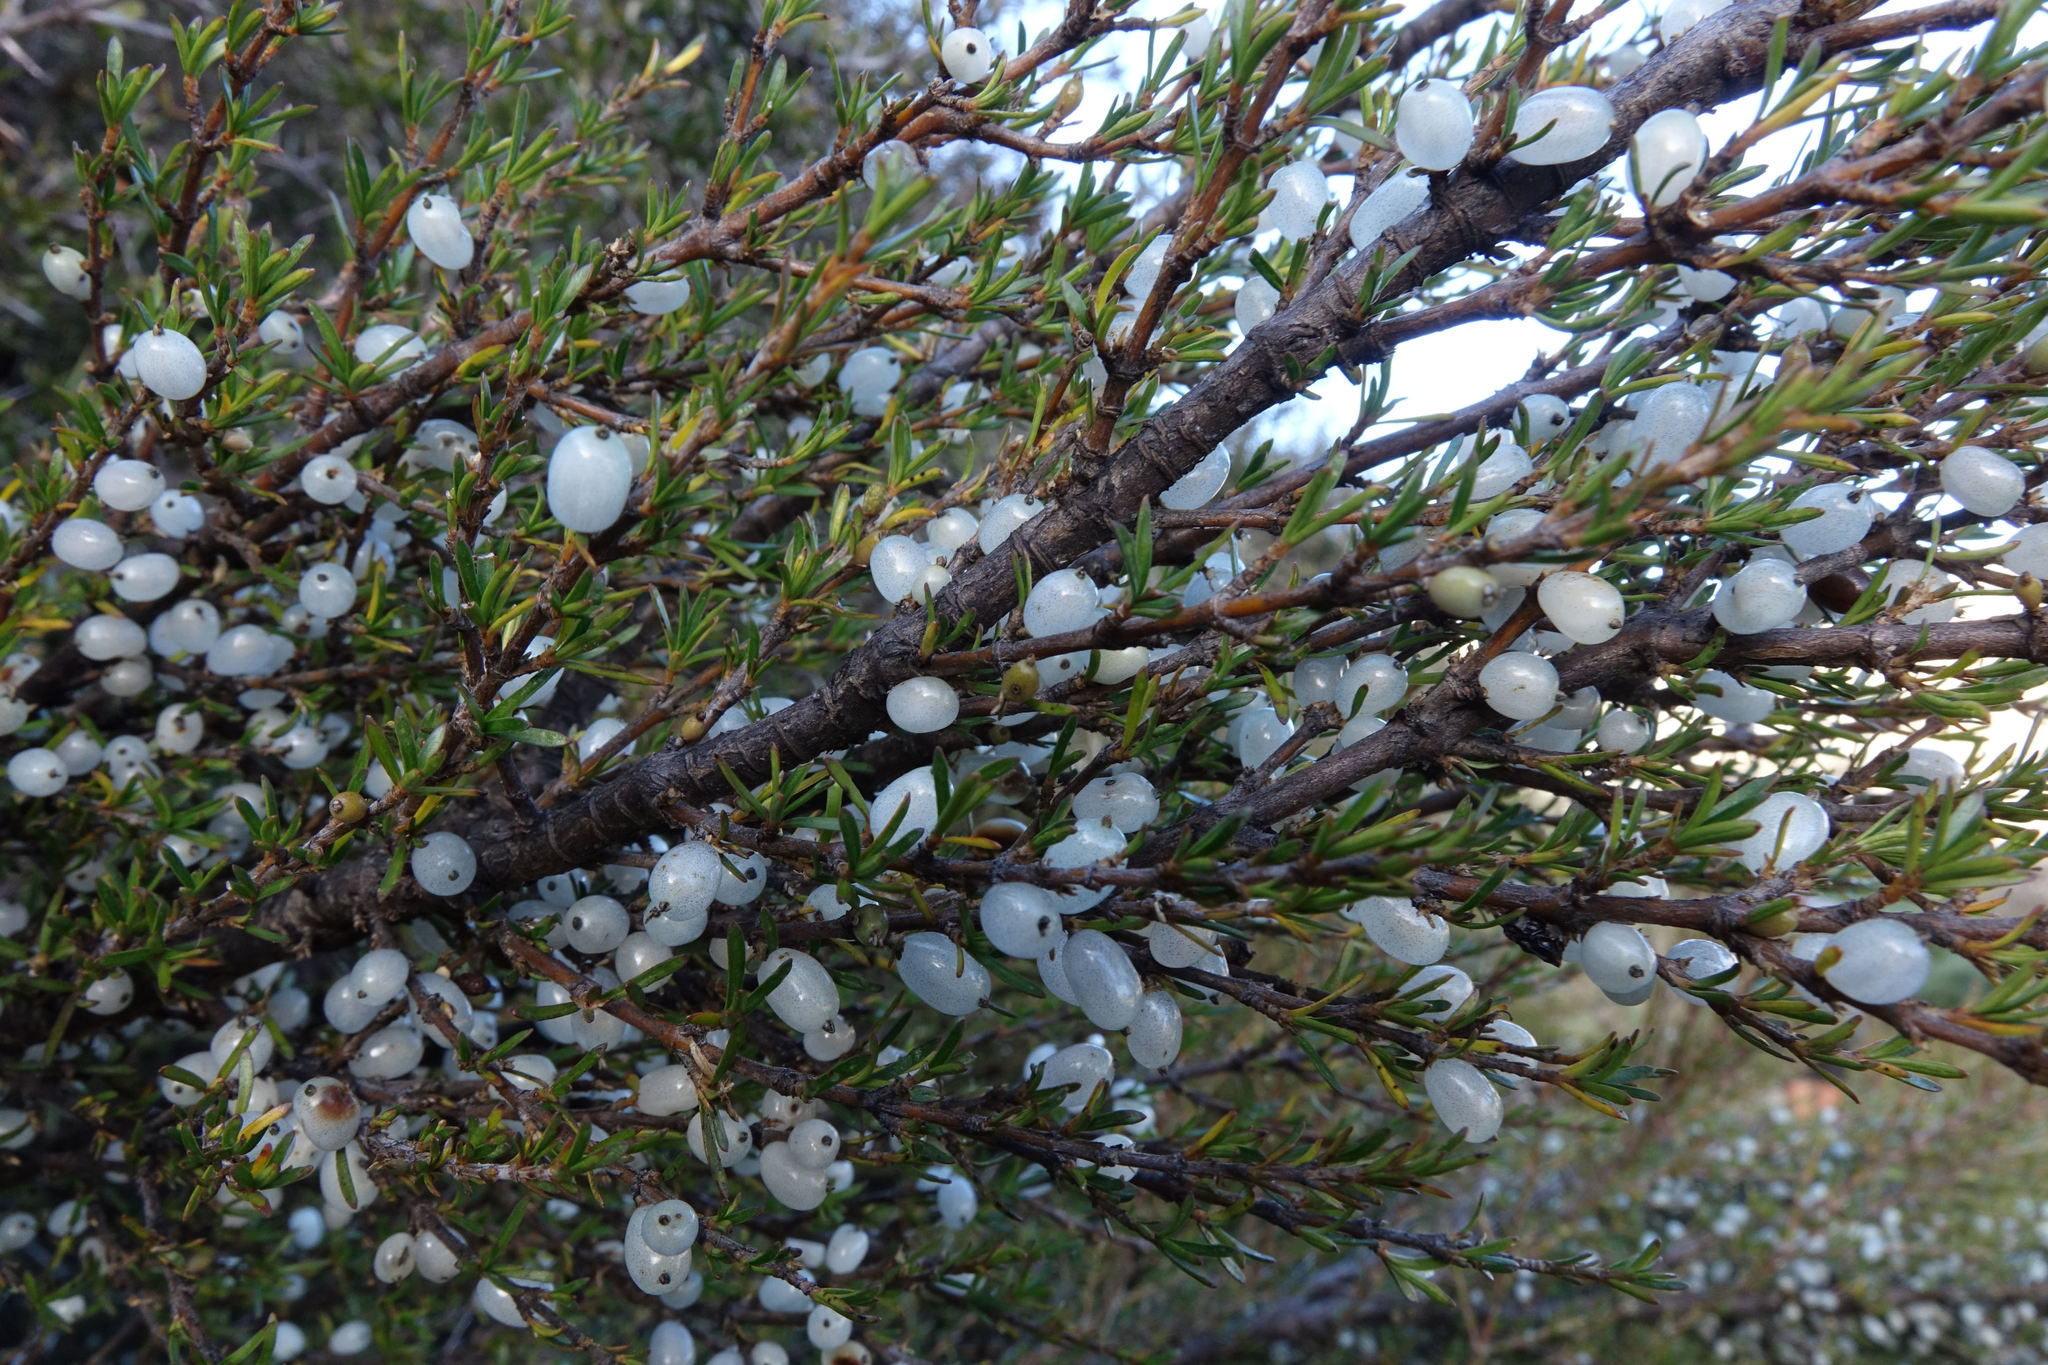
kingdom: Plantae
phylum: Tracheophyta
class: Magnoliopsida
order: Gentianales
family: Rubiaceae
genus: Coprosma
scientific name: Coprosma rugosa
